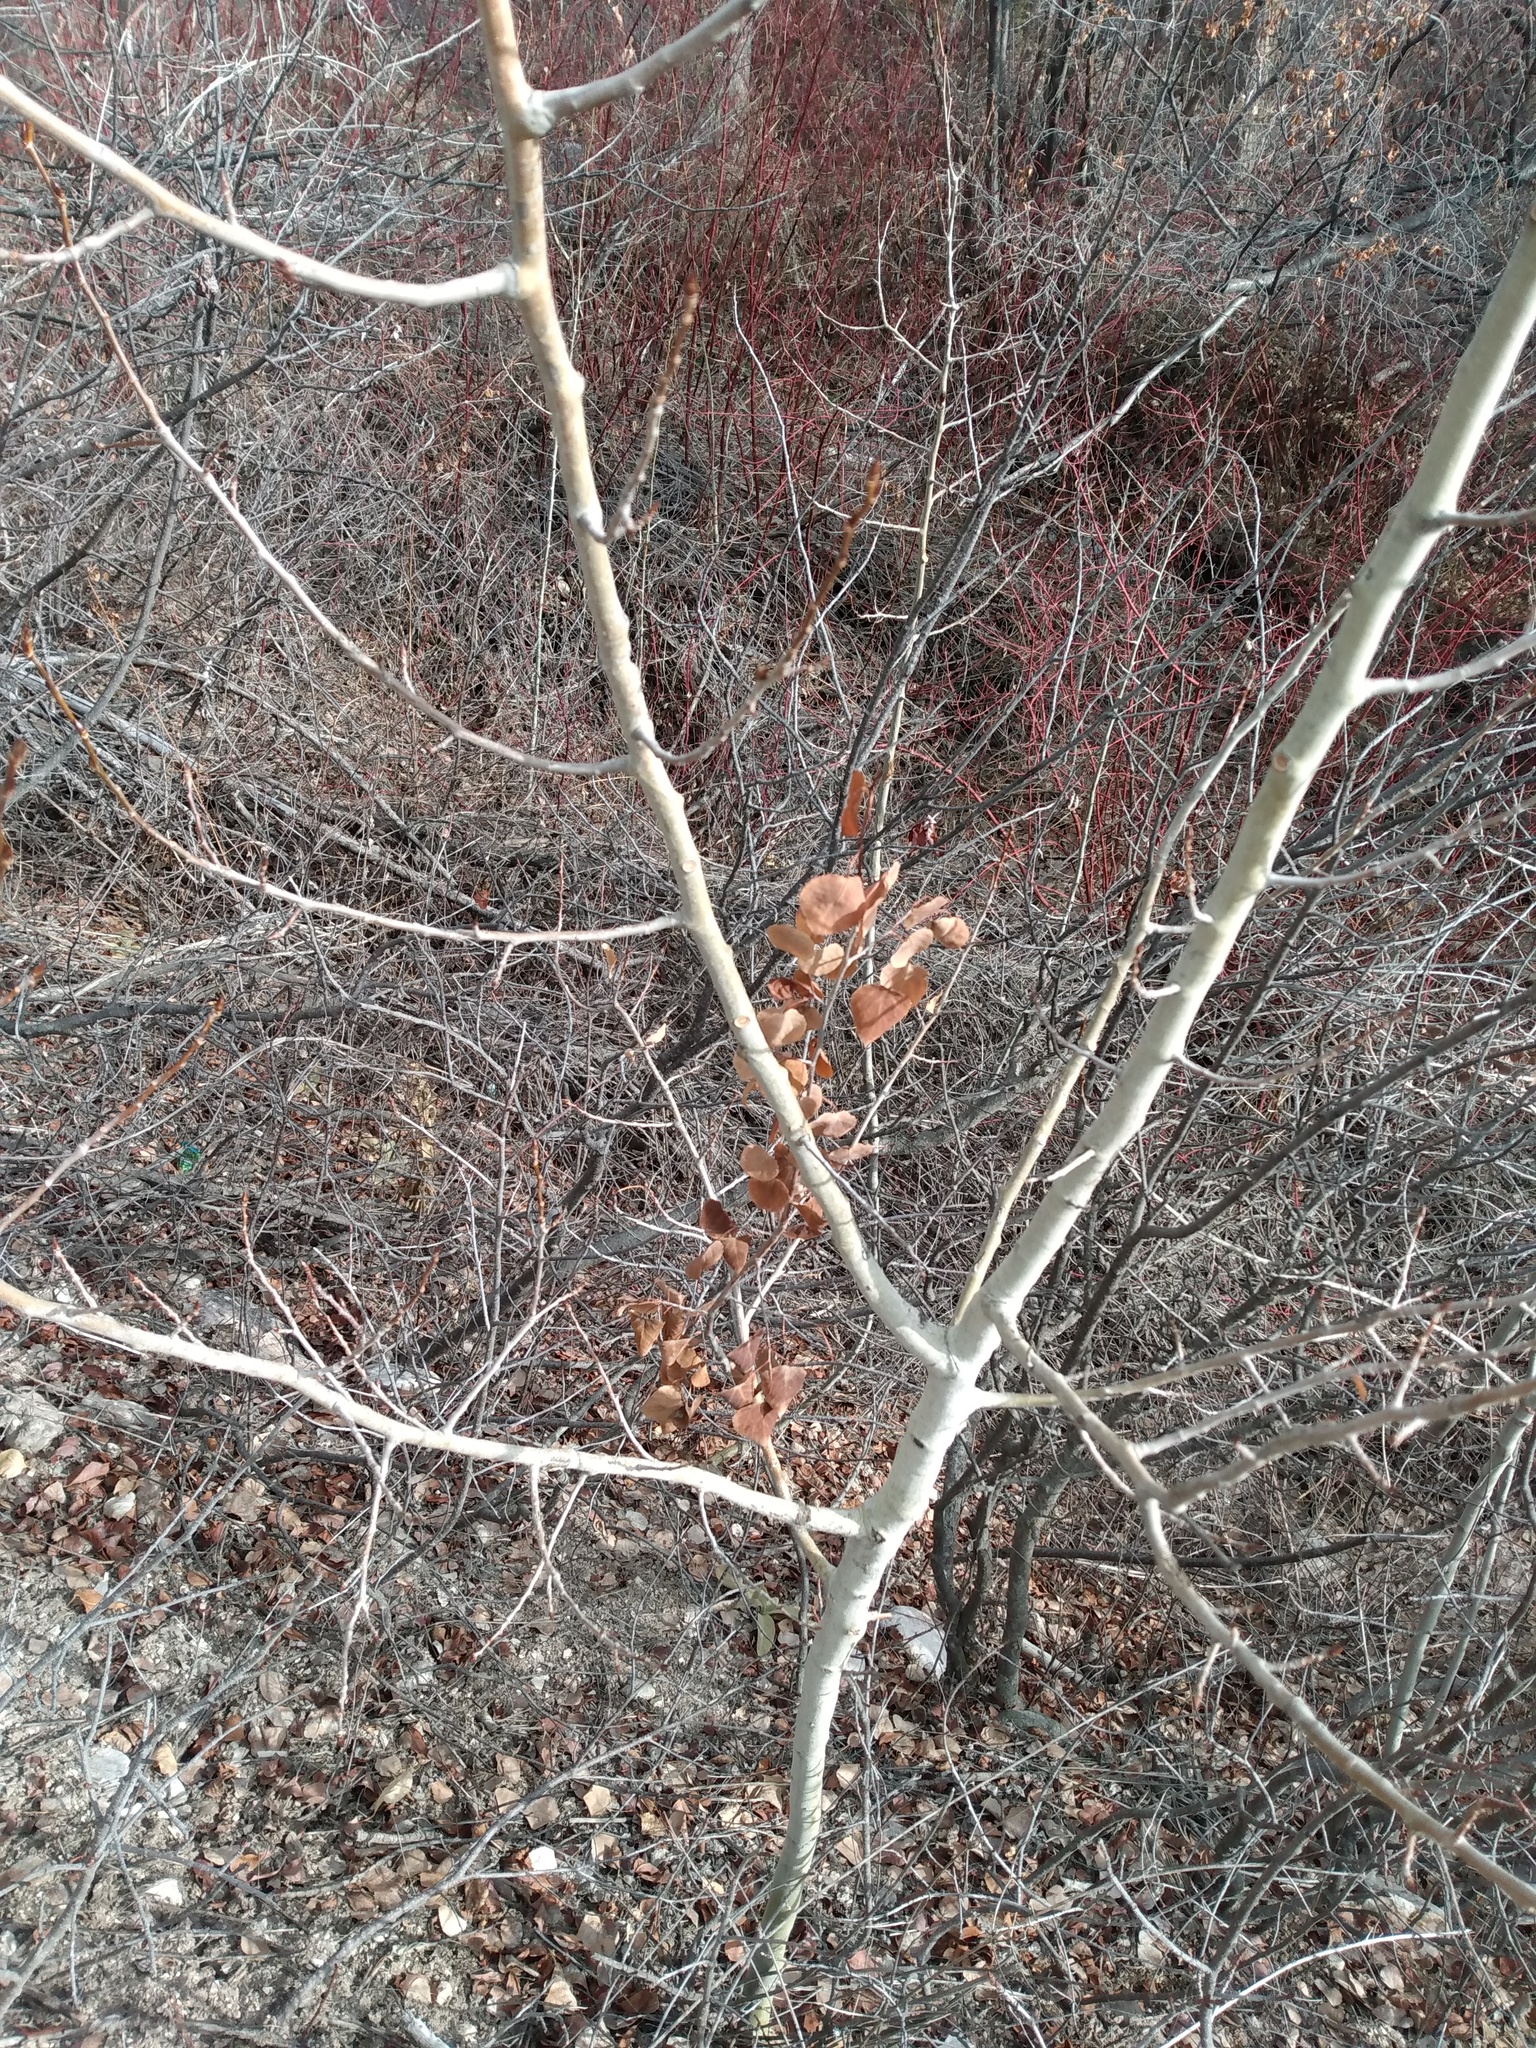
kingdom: Plantae
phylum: Tracheophyta
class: Magnoliopsida
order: Malpighiales
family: Salicaceae
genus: Populus
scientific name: Populus tremuloides
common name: Quaking aspen
